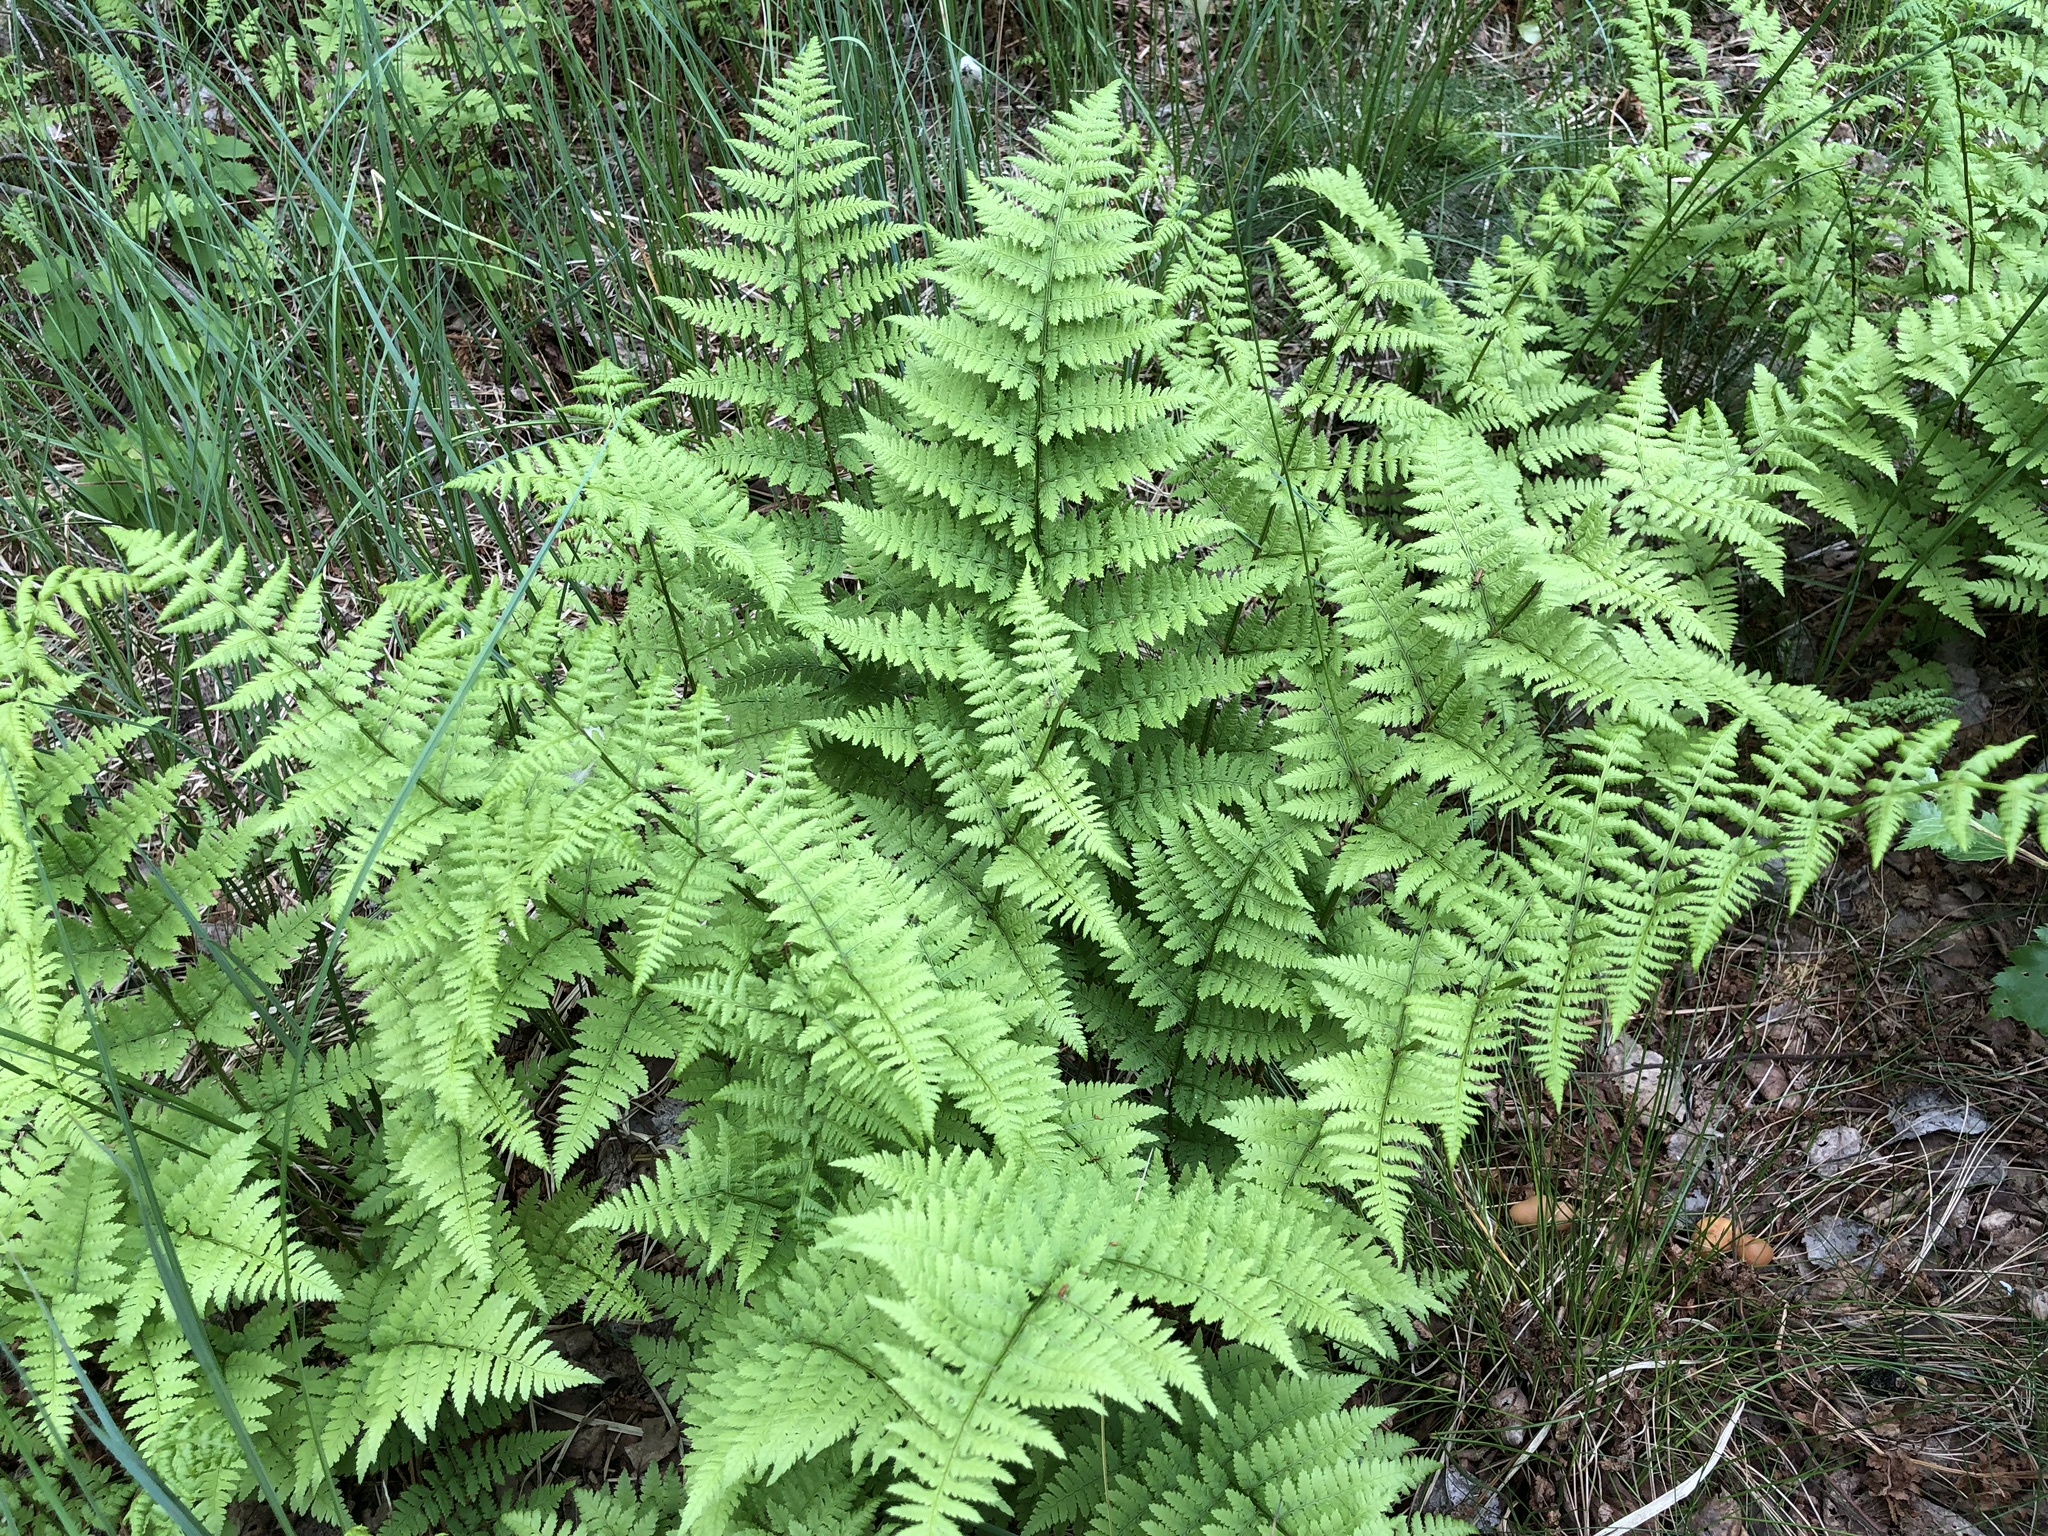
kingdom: Plantae
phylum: Tracheophyta
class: Polypodiopsida
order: Polypodiales
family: Athyriaceae
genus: Athyrium
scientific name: Athyrium filix-femina
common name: Lady fern
